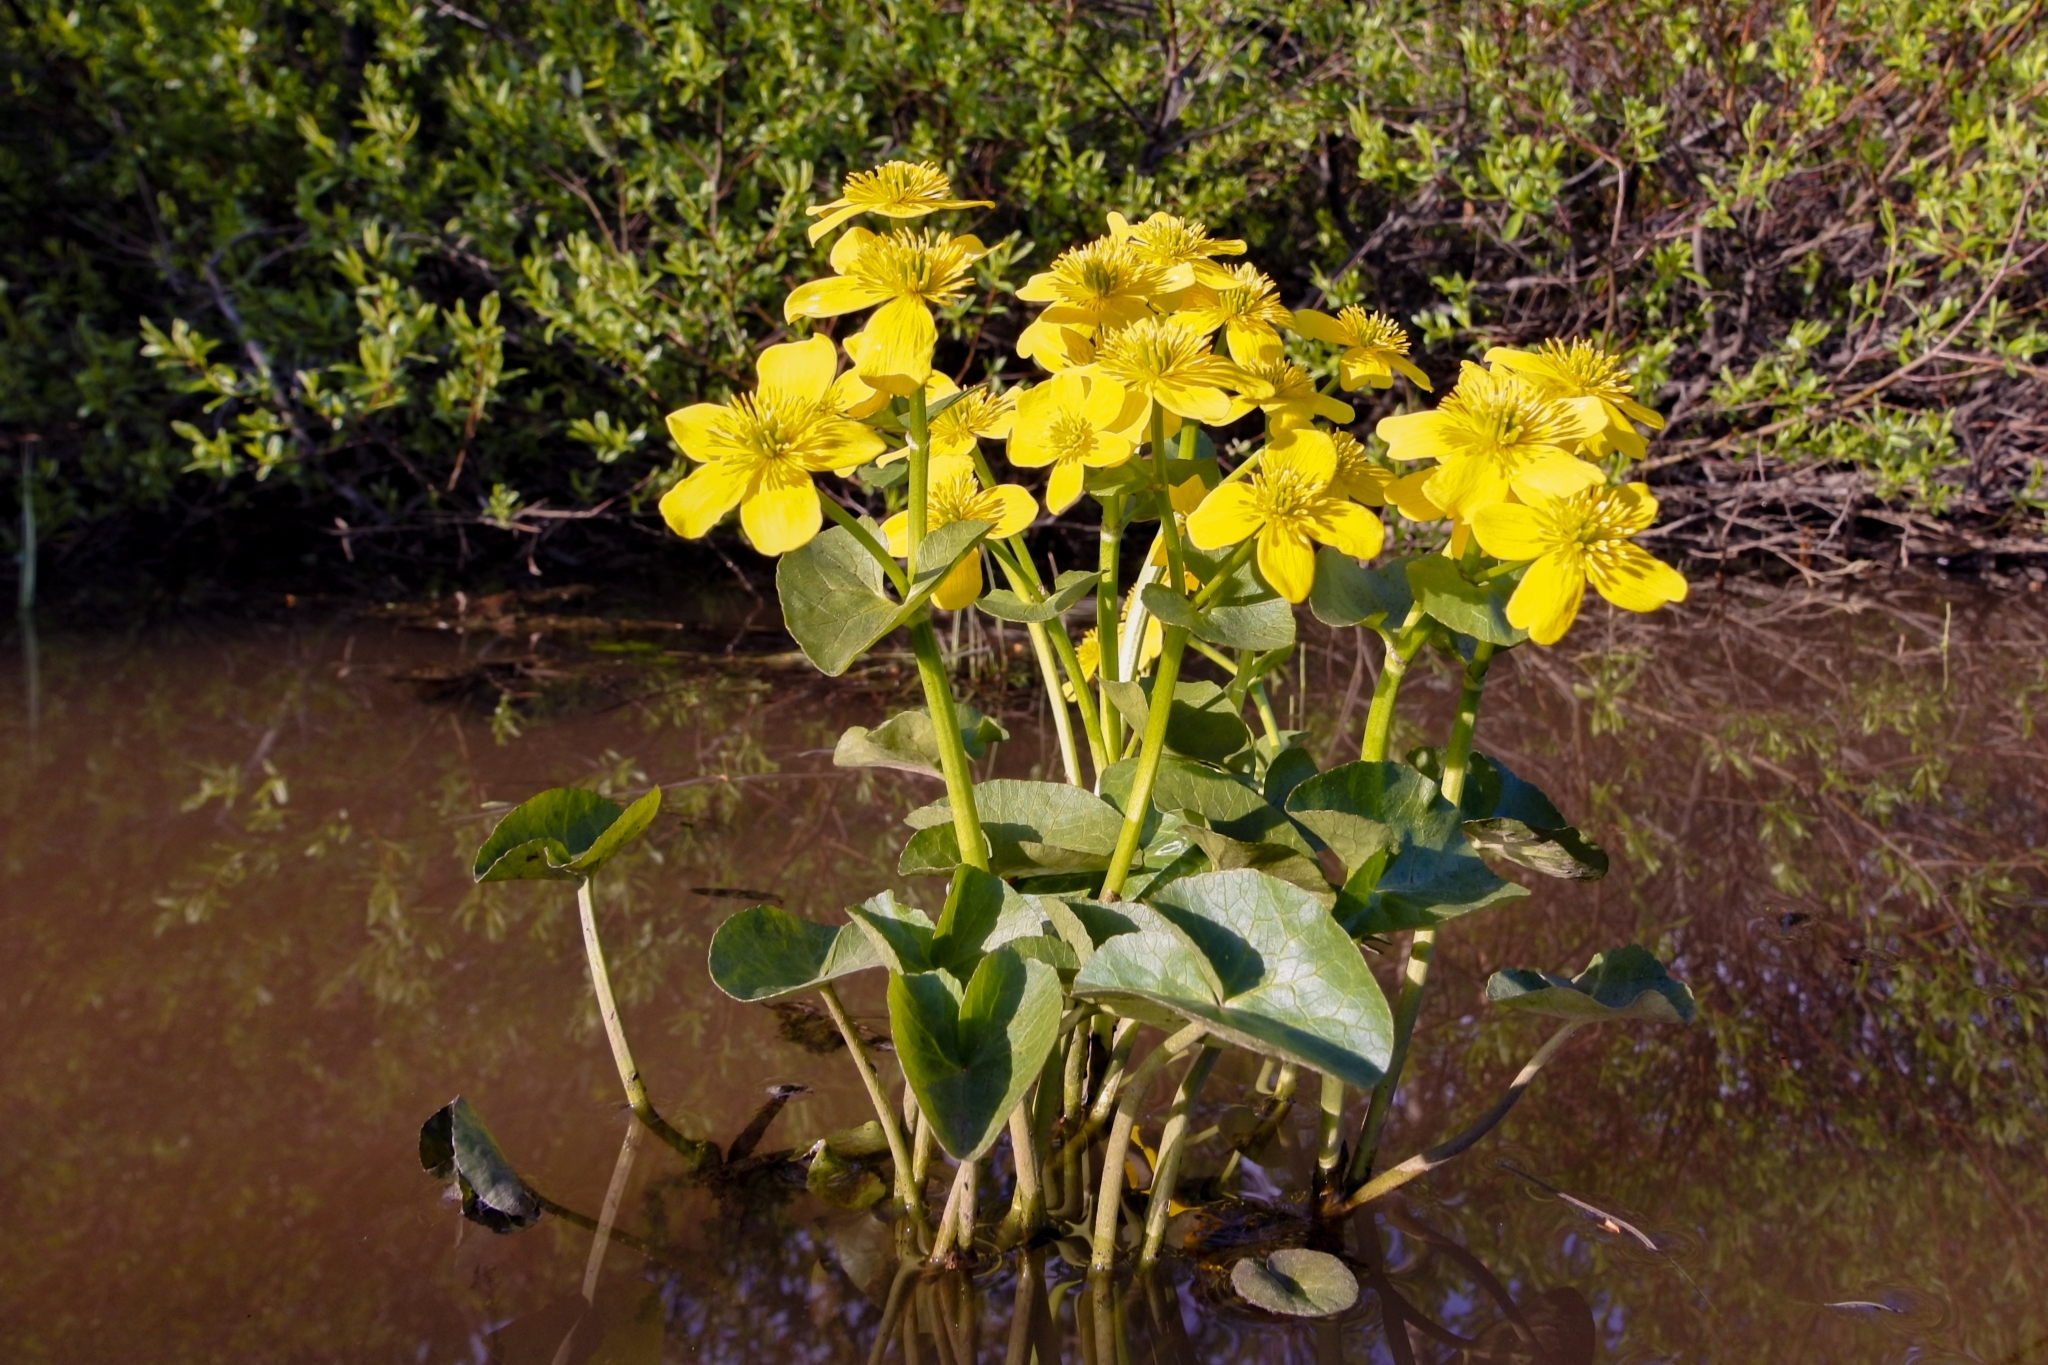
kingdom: Plantae
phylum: Tracheophyta
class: Magnoliopsida
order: Ranunculales
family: Ranunculaceae
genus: Caltha
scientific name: Caltha palustris
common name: Marsh marigold
